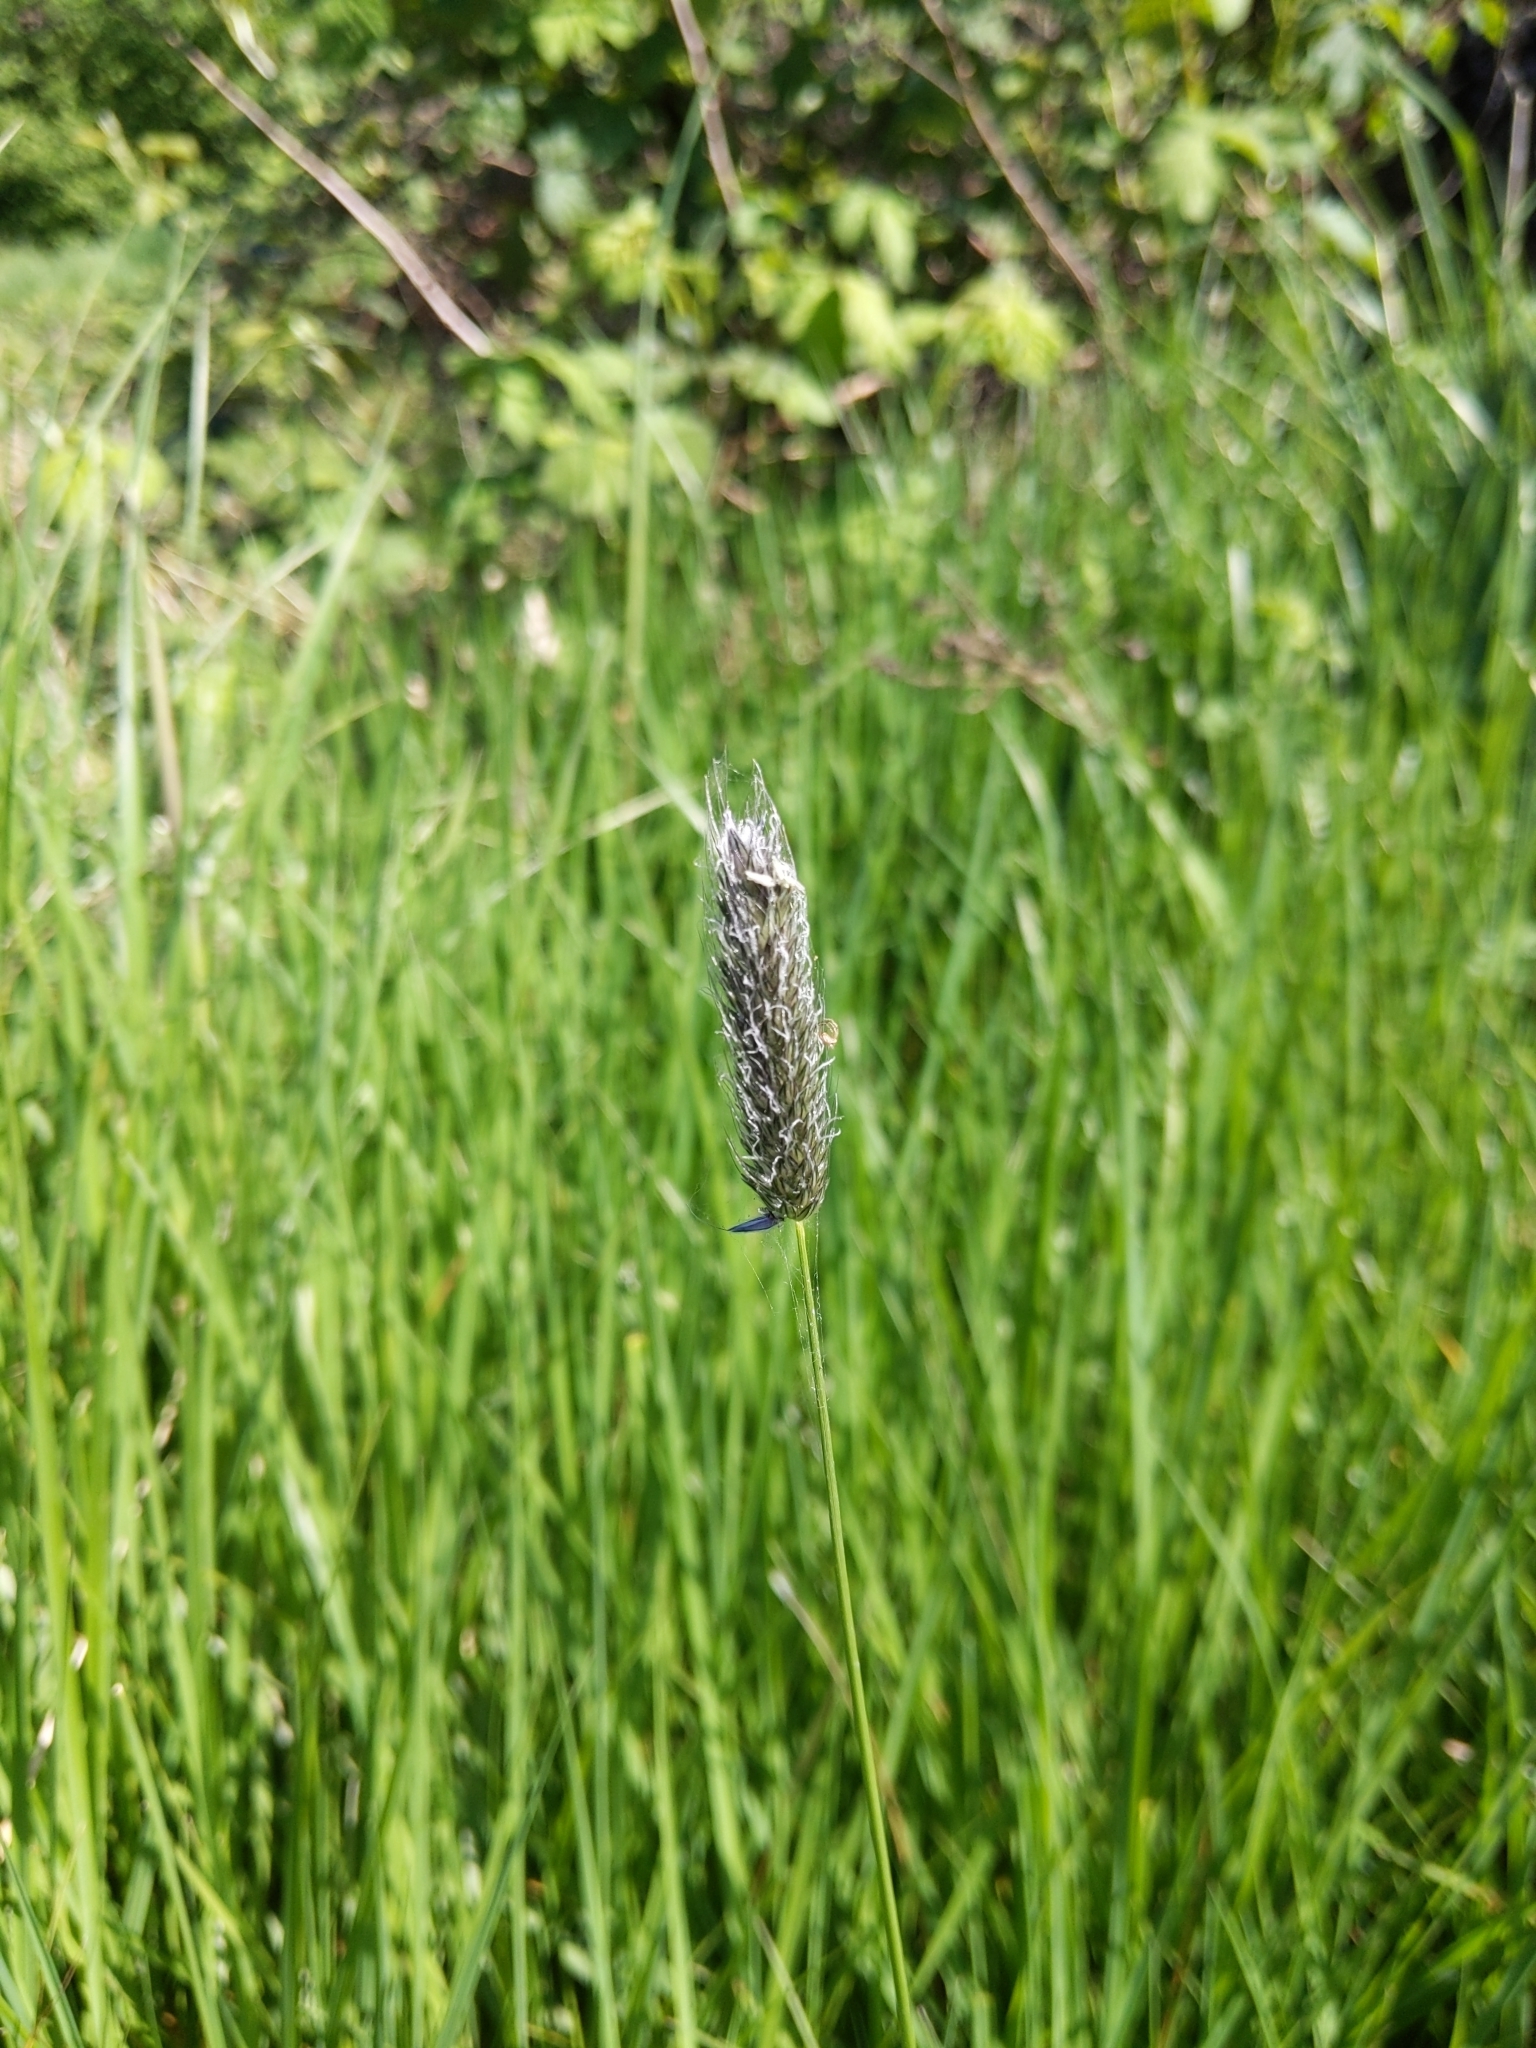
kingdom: Plantae
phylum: Tracheophyta
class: Liliopsida
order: Poales
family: Poaceae
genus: Alopecurus
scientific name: Alopecurus pratensis
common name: Meadow foxtail
